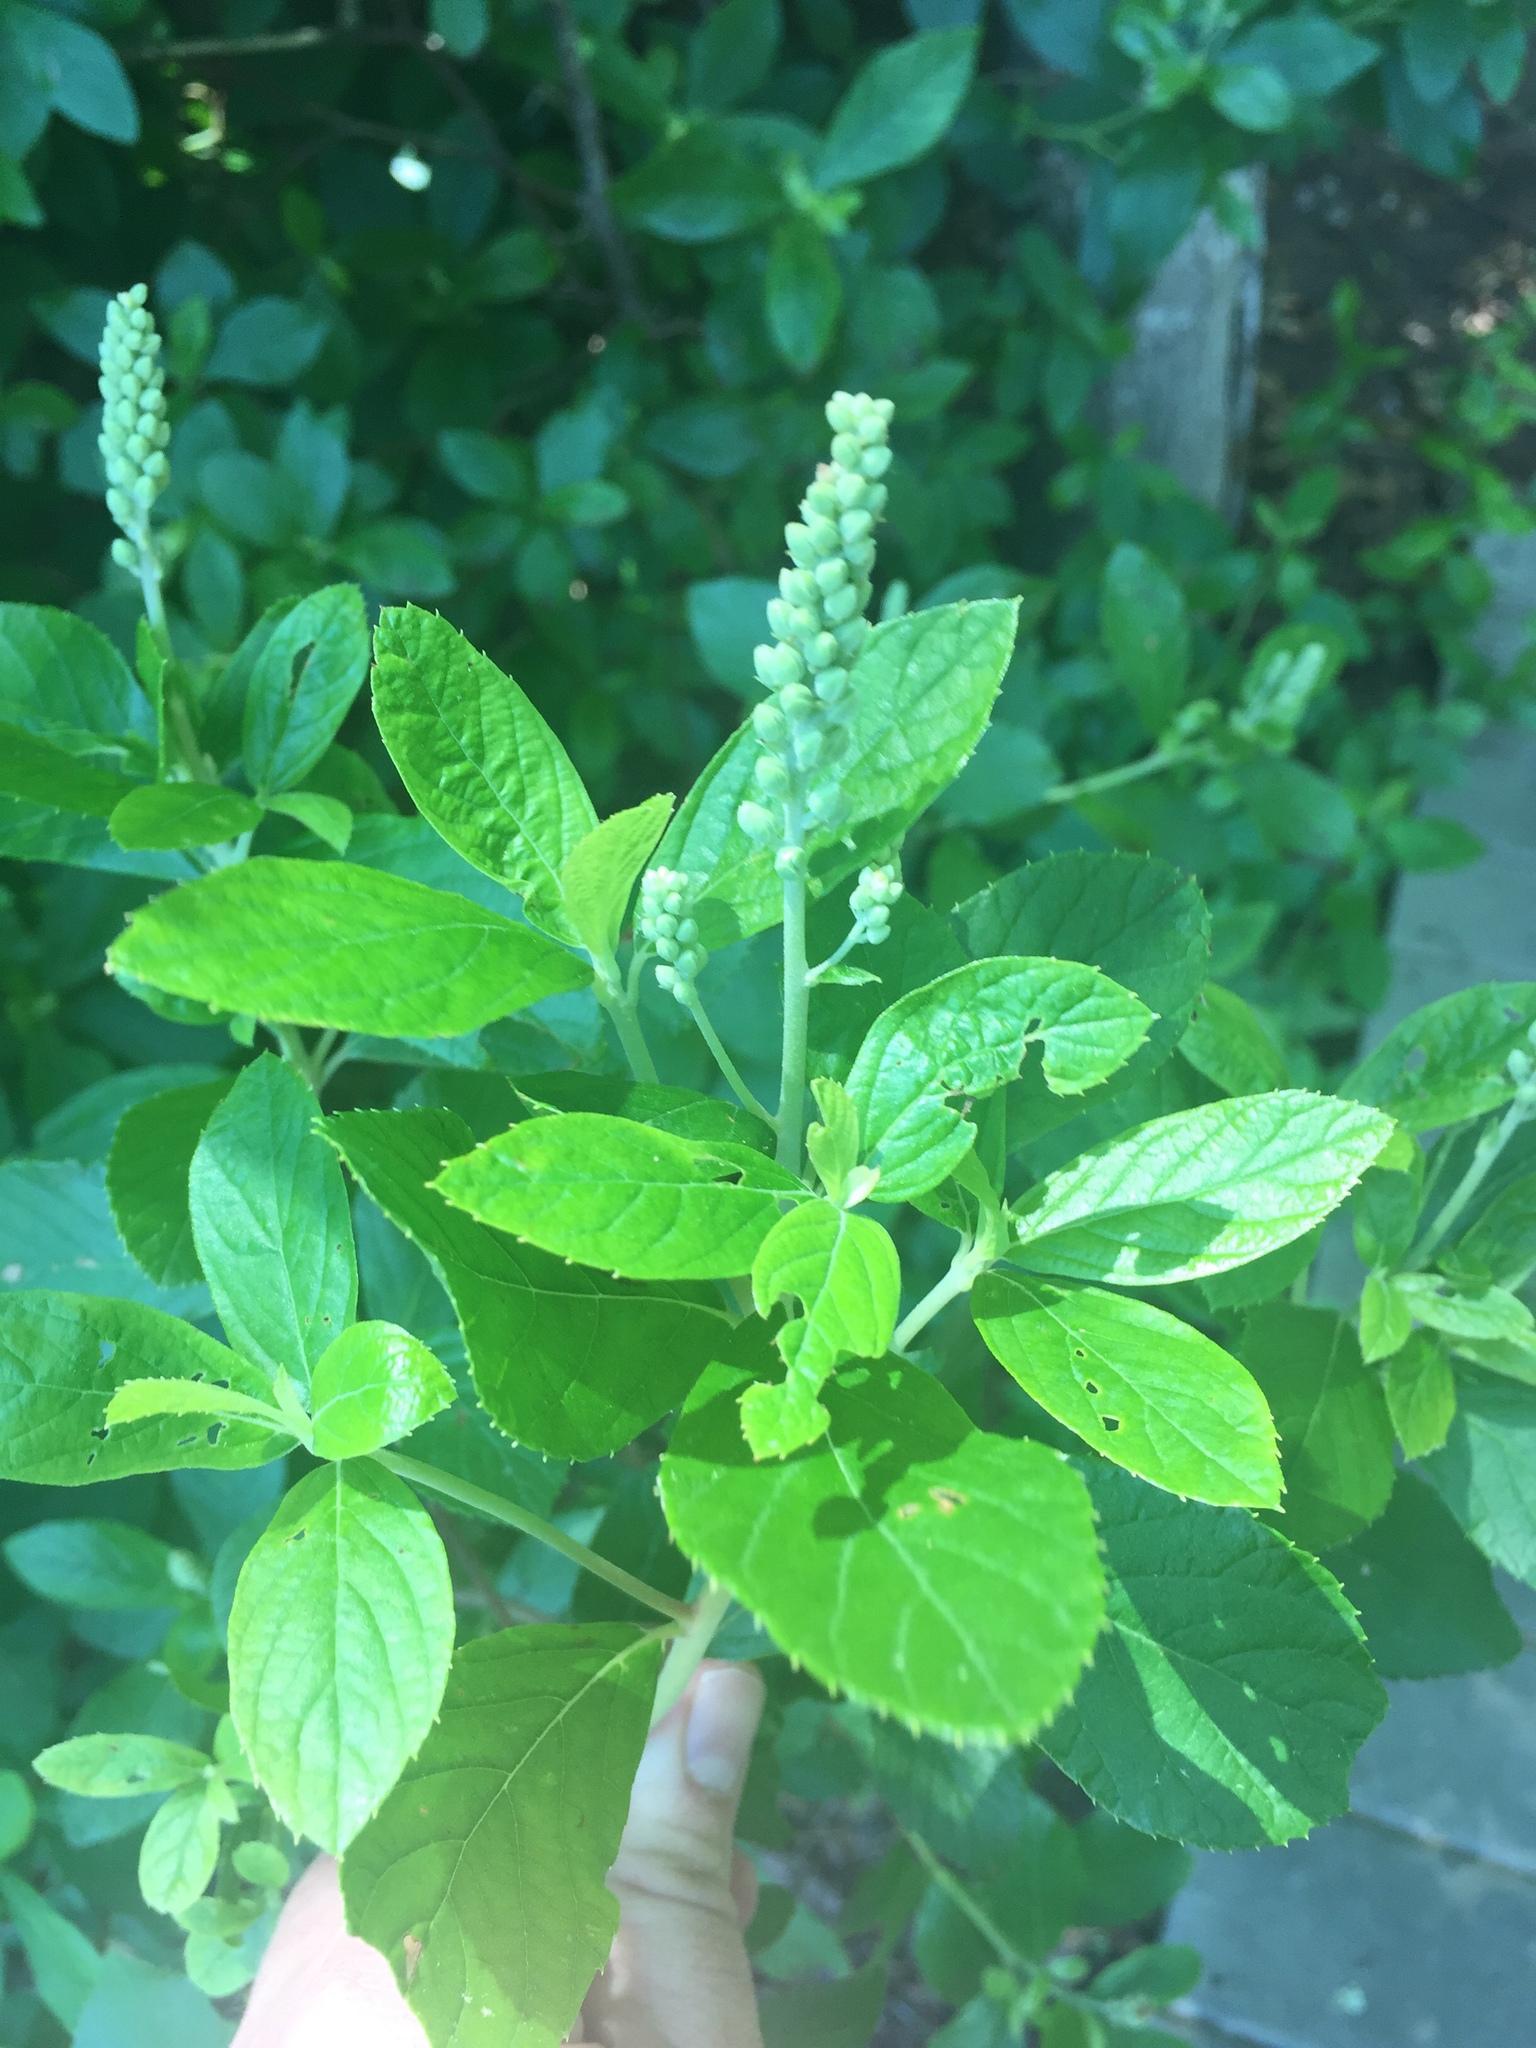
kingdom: Plantae
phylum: Tracheophyta
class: Magnoliopsida
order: Ericales
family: Clethraceae
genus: Clethra
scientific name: Clethra alnifolia
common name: Sweet pepperbush
